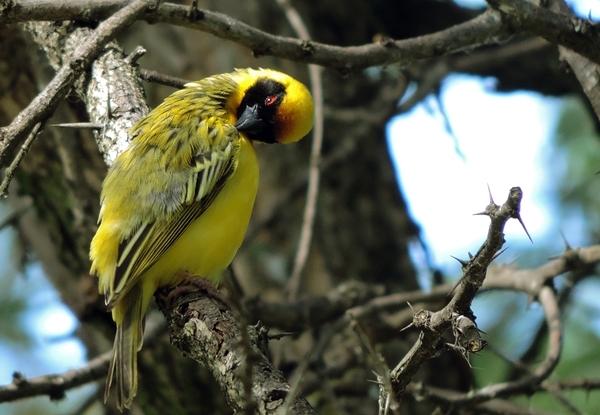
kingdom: Animalia
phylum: Chordata
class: Aves
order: Passeriformes
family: Ploceidae
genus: Ploceus
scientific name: Ploceus velatus
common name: Southern masked weaver
